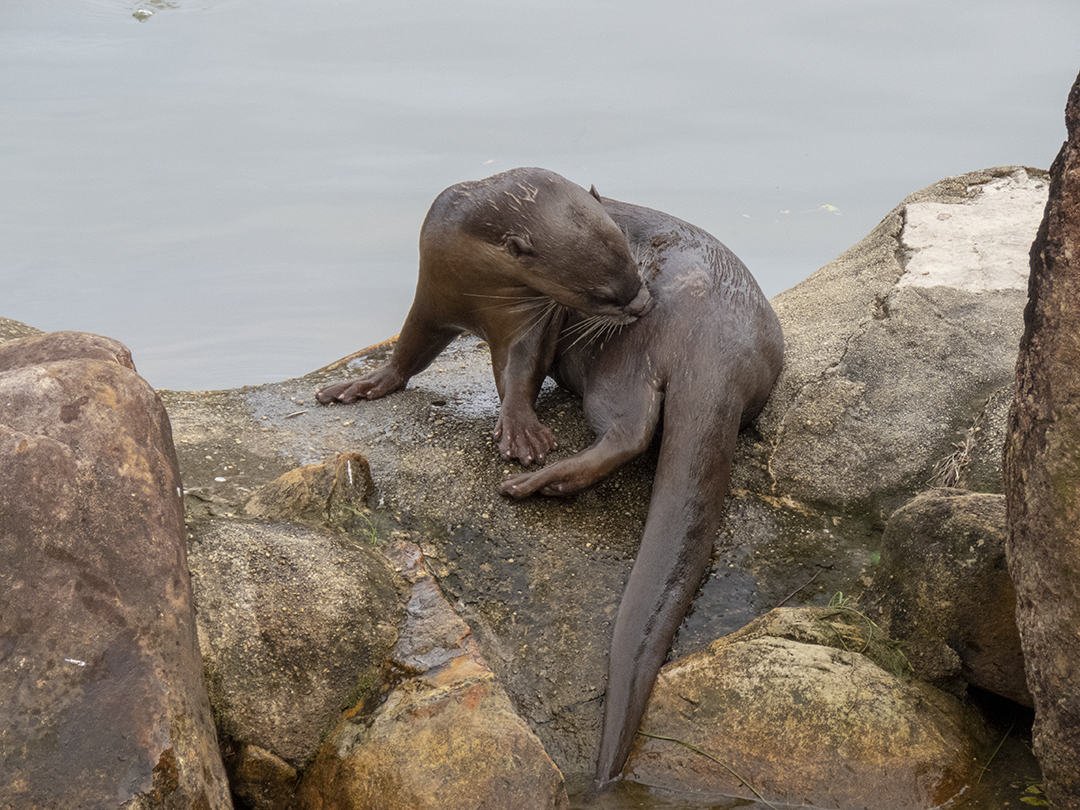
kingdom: Animalia
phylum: Chordata
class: Mammalia
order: Carnivora
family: Mustelidae
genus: Lutrogale
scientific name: Lutrogale perspicillata
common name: Smooth-coated otter
